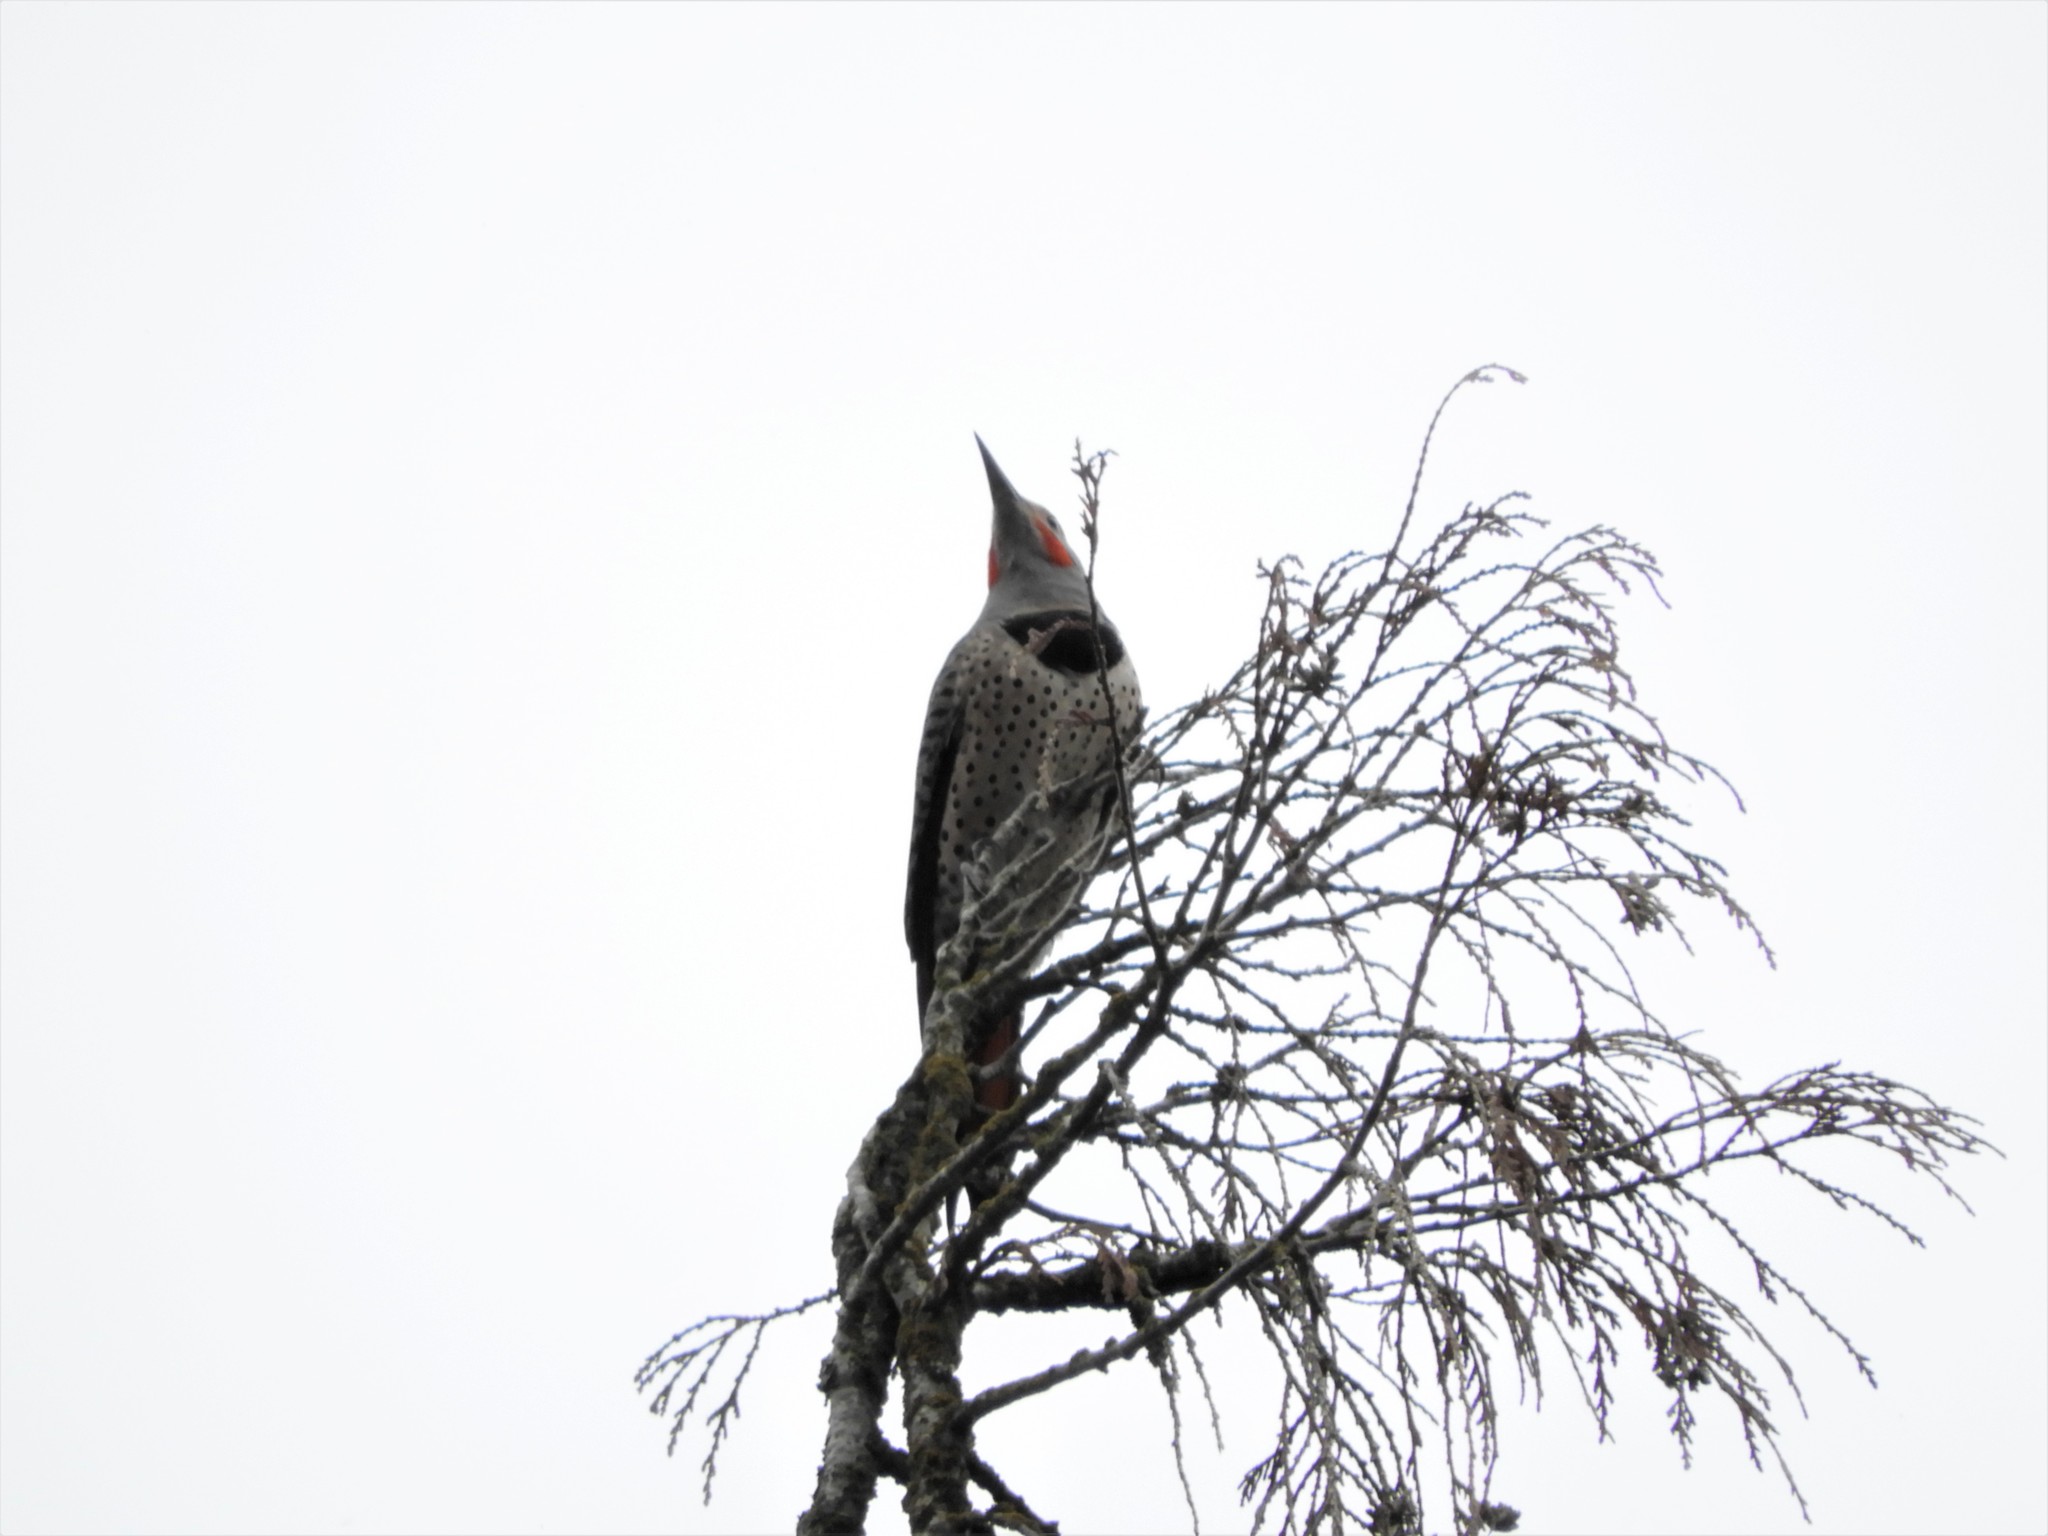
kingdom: Animalia
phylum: Chordata
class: Aves
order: Piciformes
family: Picidae
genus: Colaptes
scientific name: Colaptes auratus
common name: Northern flicker
